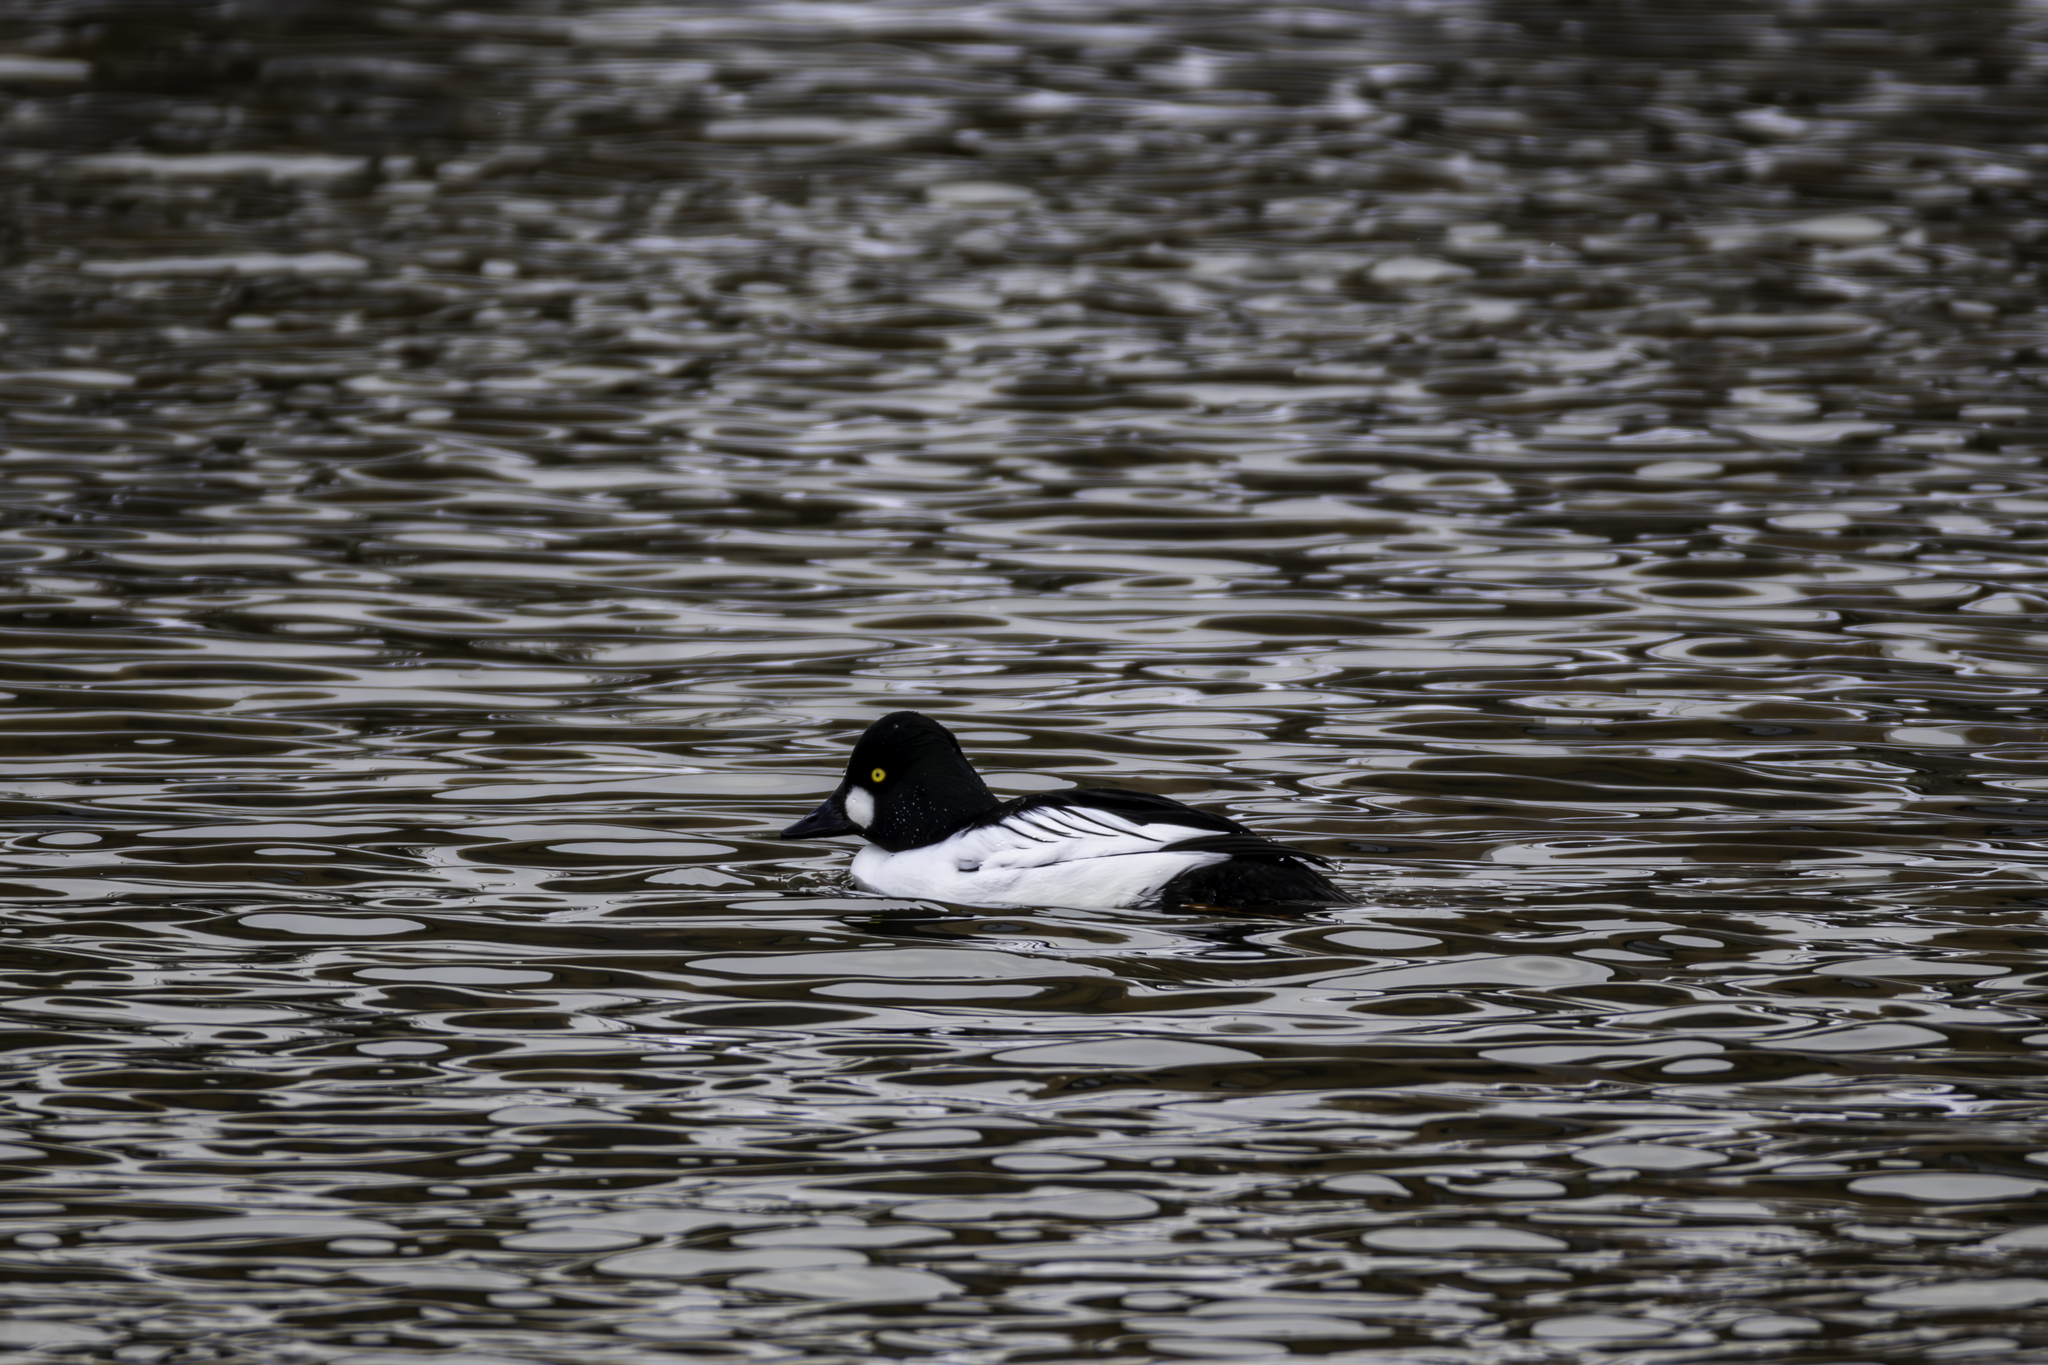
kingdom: Animalia
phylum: Chordata
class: Aves
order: Anseriformes
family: Anatidae
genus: Bucephala
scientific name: Bucephala clangula
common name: Common goldeneye
